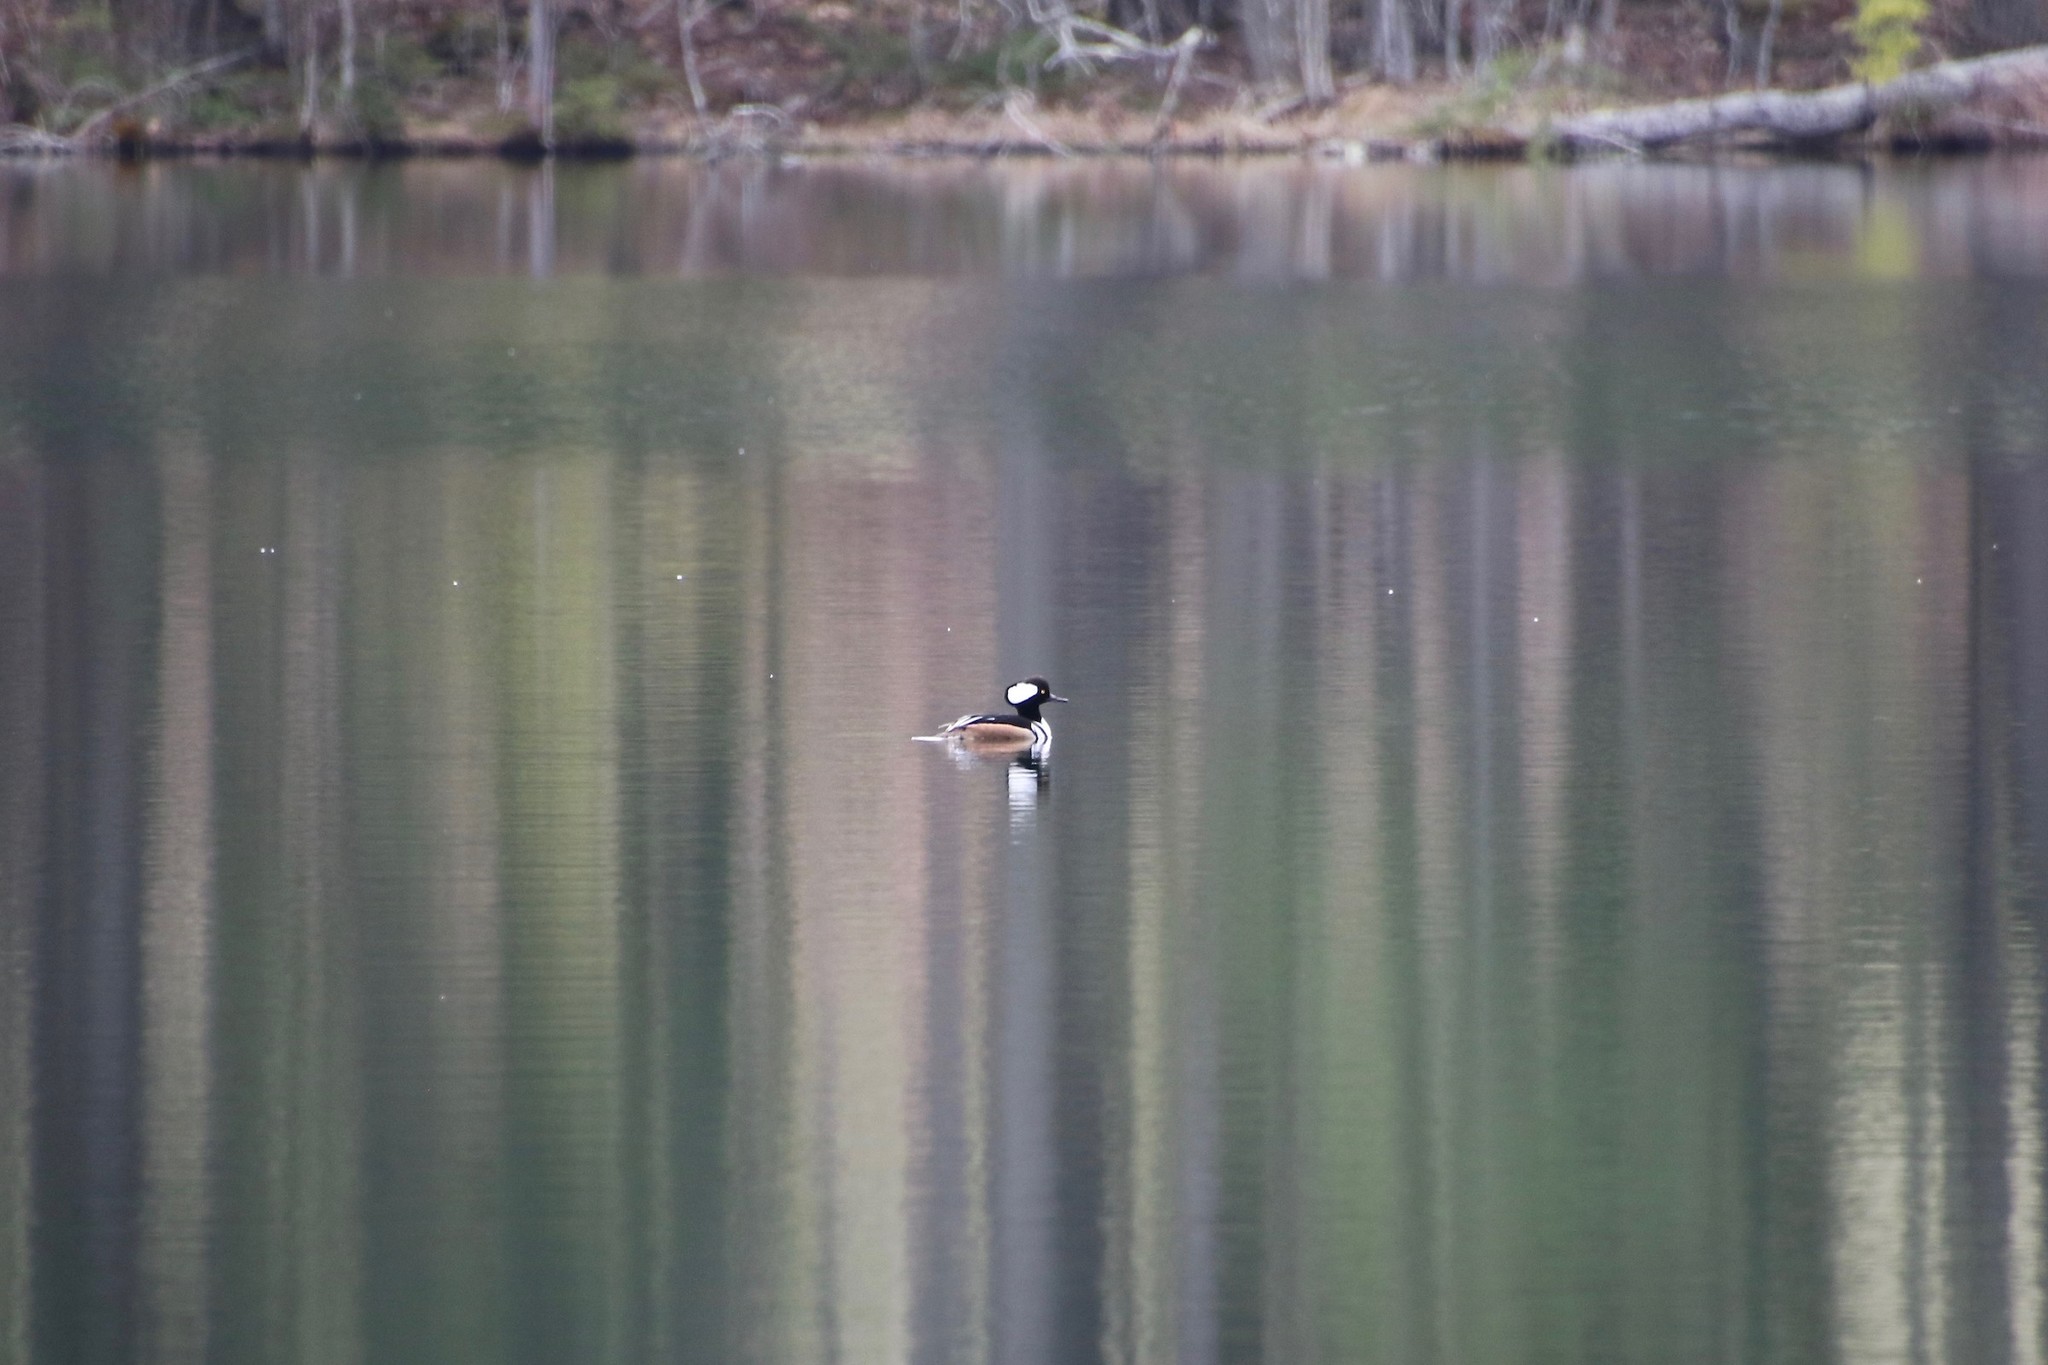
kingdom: Animalia
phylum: Chordata
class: Aves
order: Anseriformes
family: Anatidae
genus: Lophodytes
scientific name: Lophodytes cucullatus
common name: Hooded merganser
